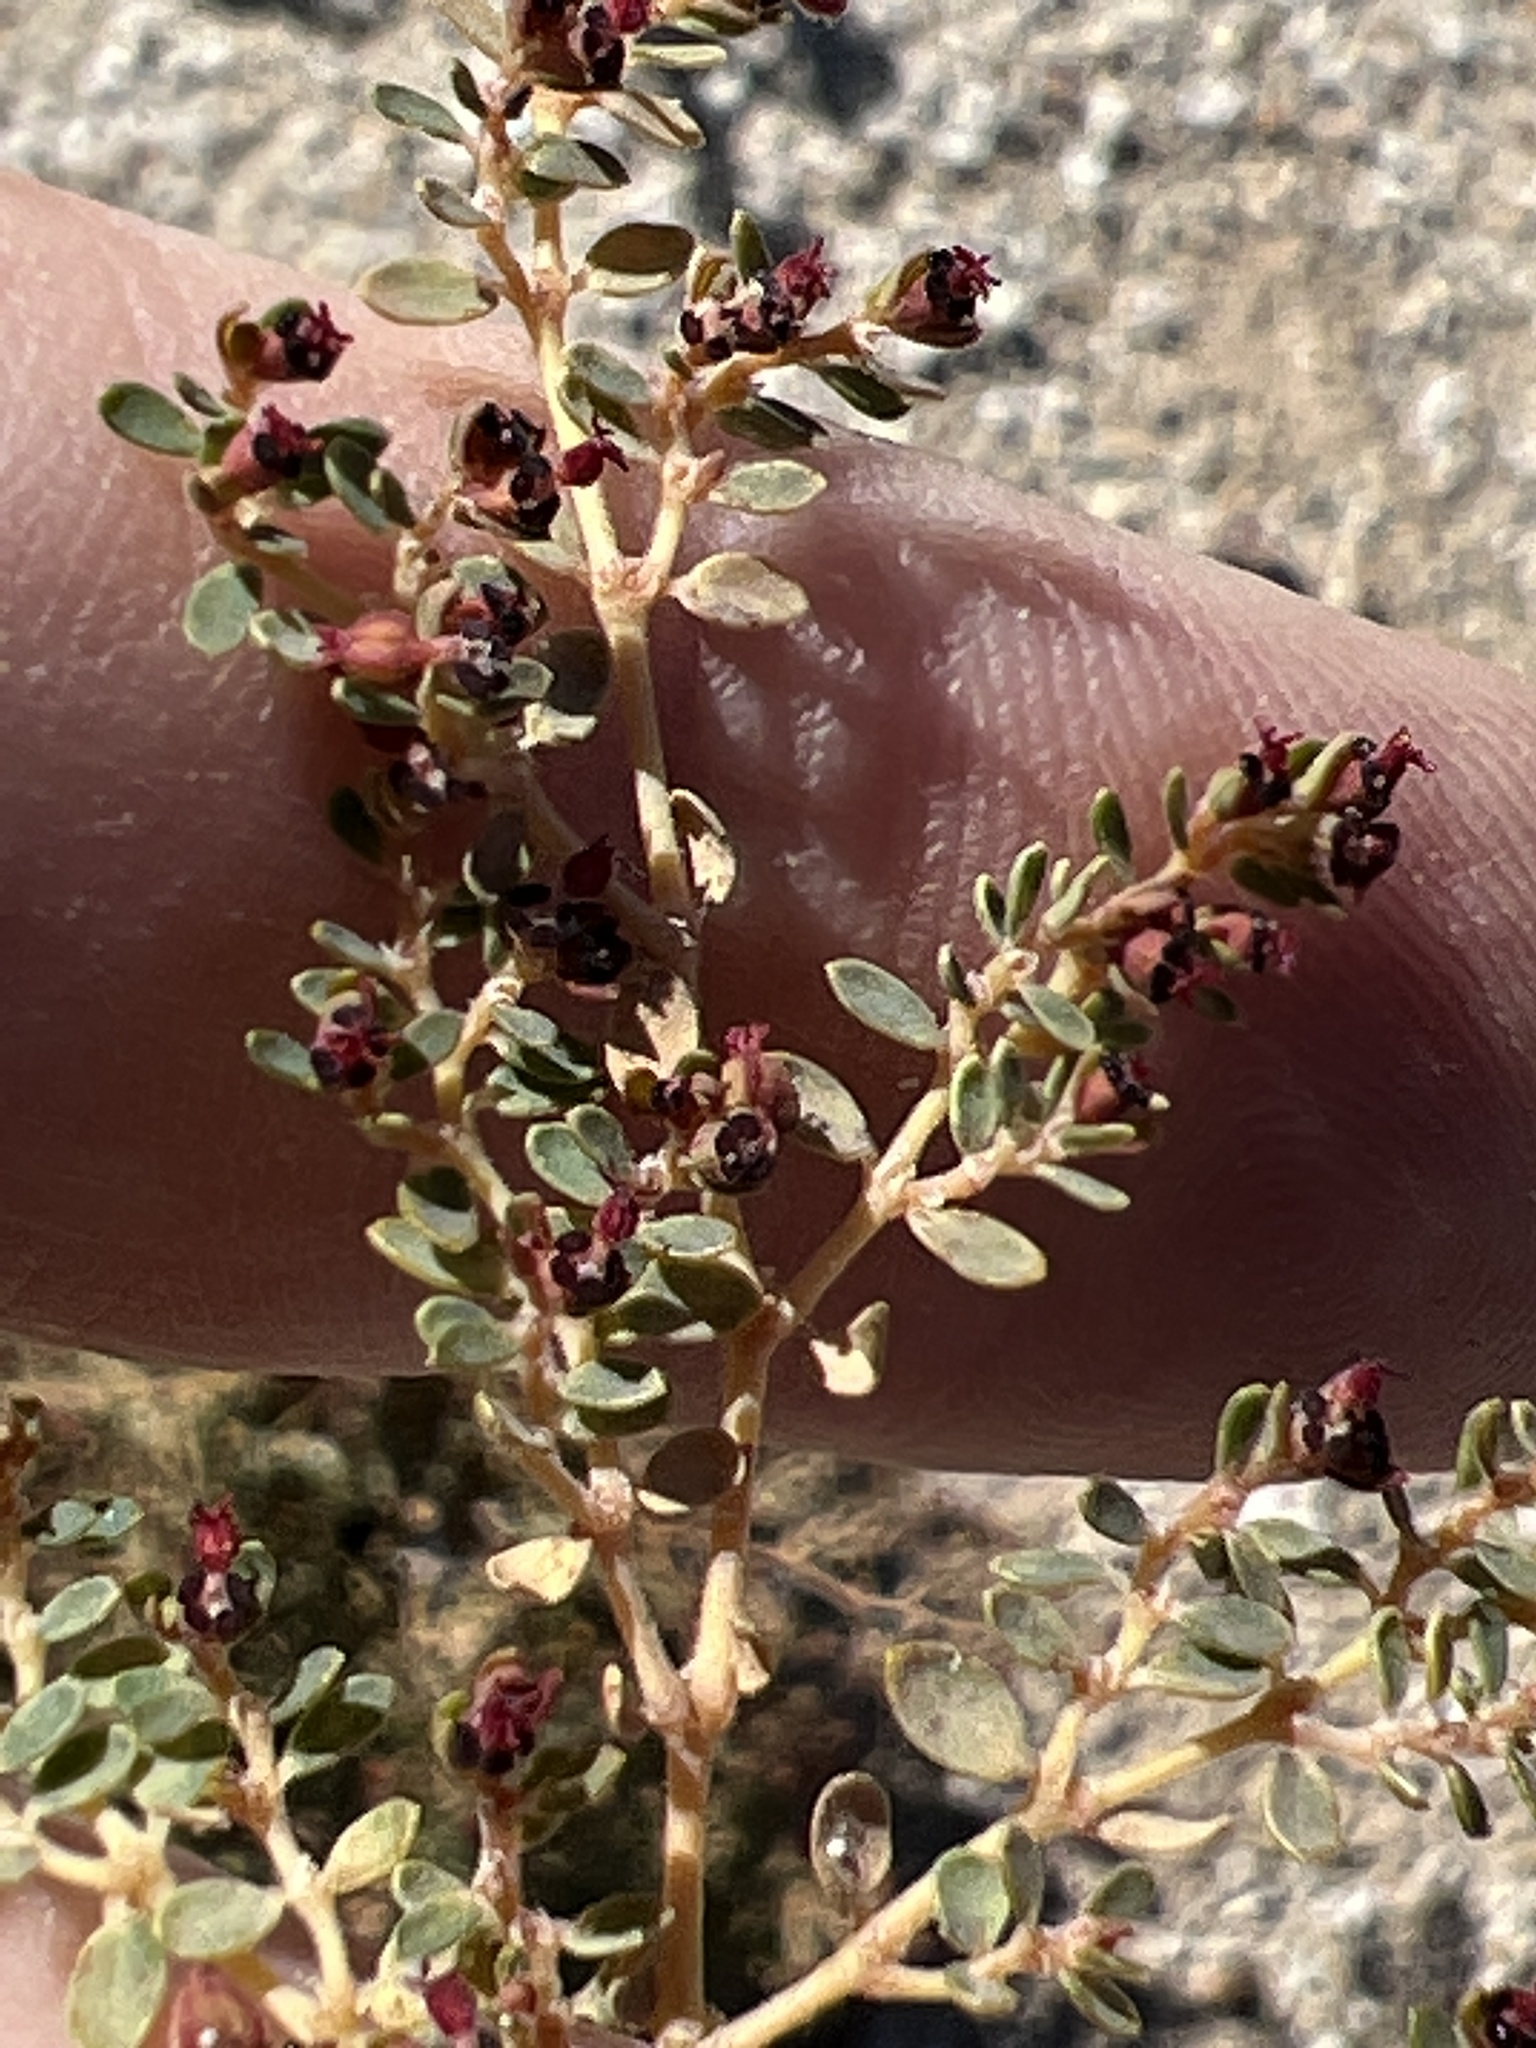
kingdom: Plantae
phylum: Tracheophyta
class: Magnoliopsida
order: Malpighiales
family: Euphorbiaceae
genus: Euphorbia
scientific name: Euphorbia polycarpa
